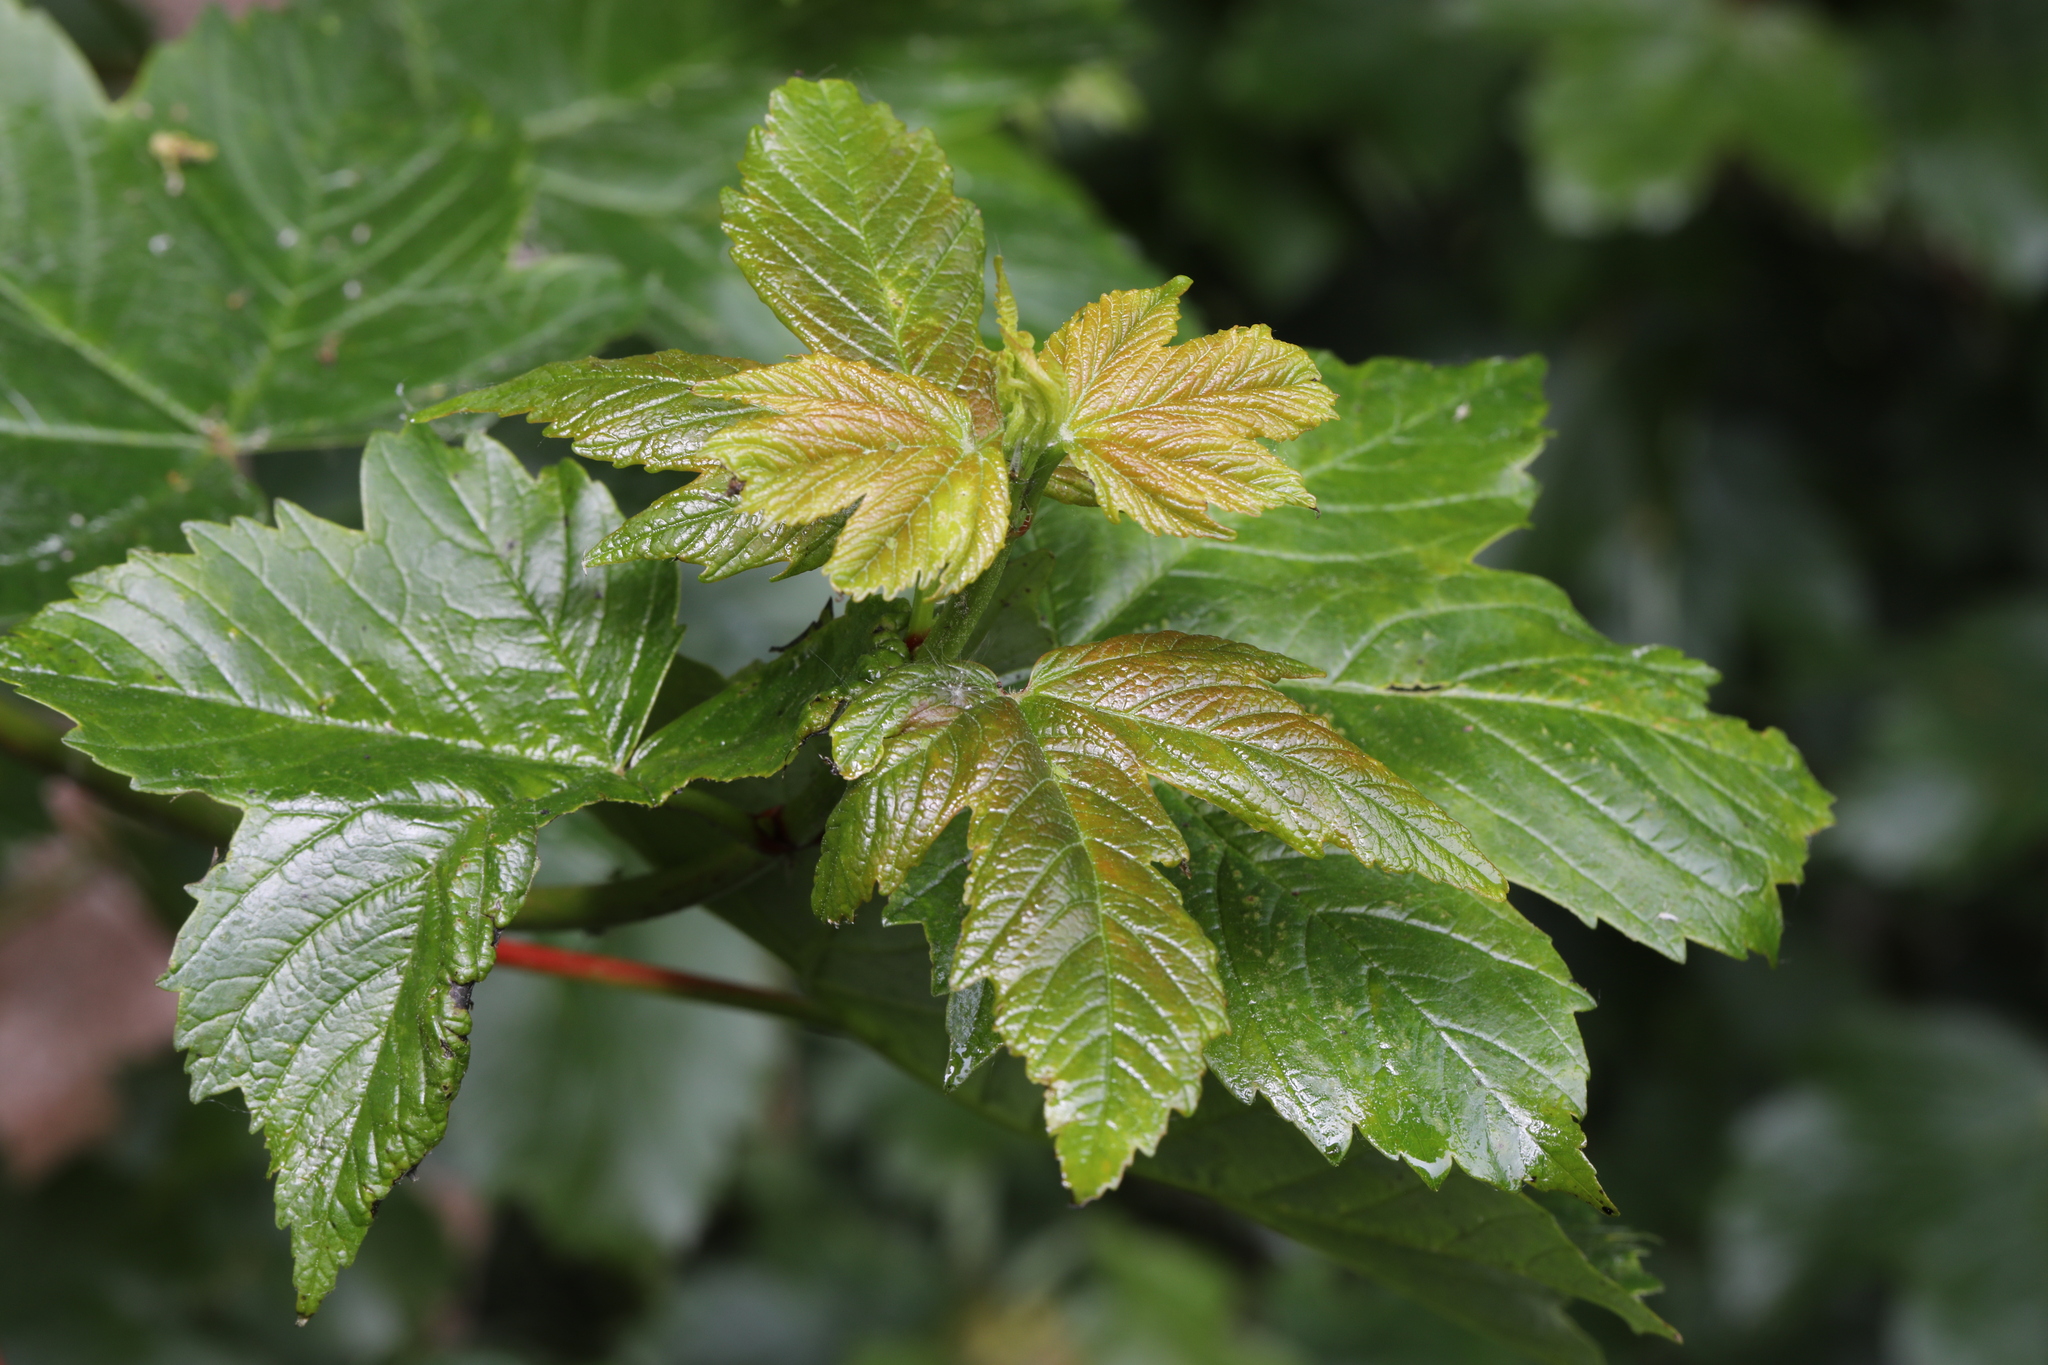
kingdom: Plantae
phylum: Tracheophyta
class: Magnoliopsida
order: Sapindales
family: Sapindaceae
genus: Acer
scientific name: Acer pseudoplatanus
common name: Sycamore
